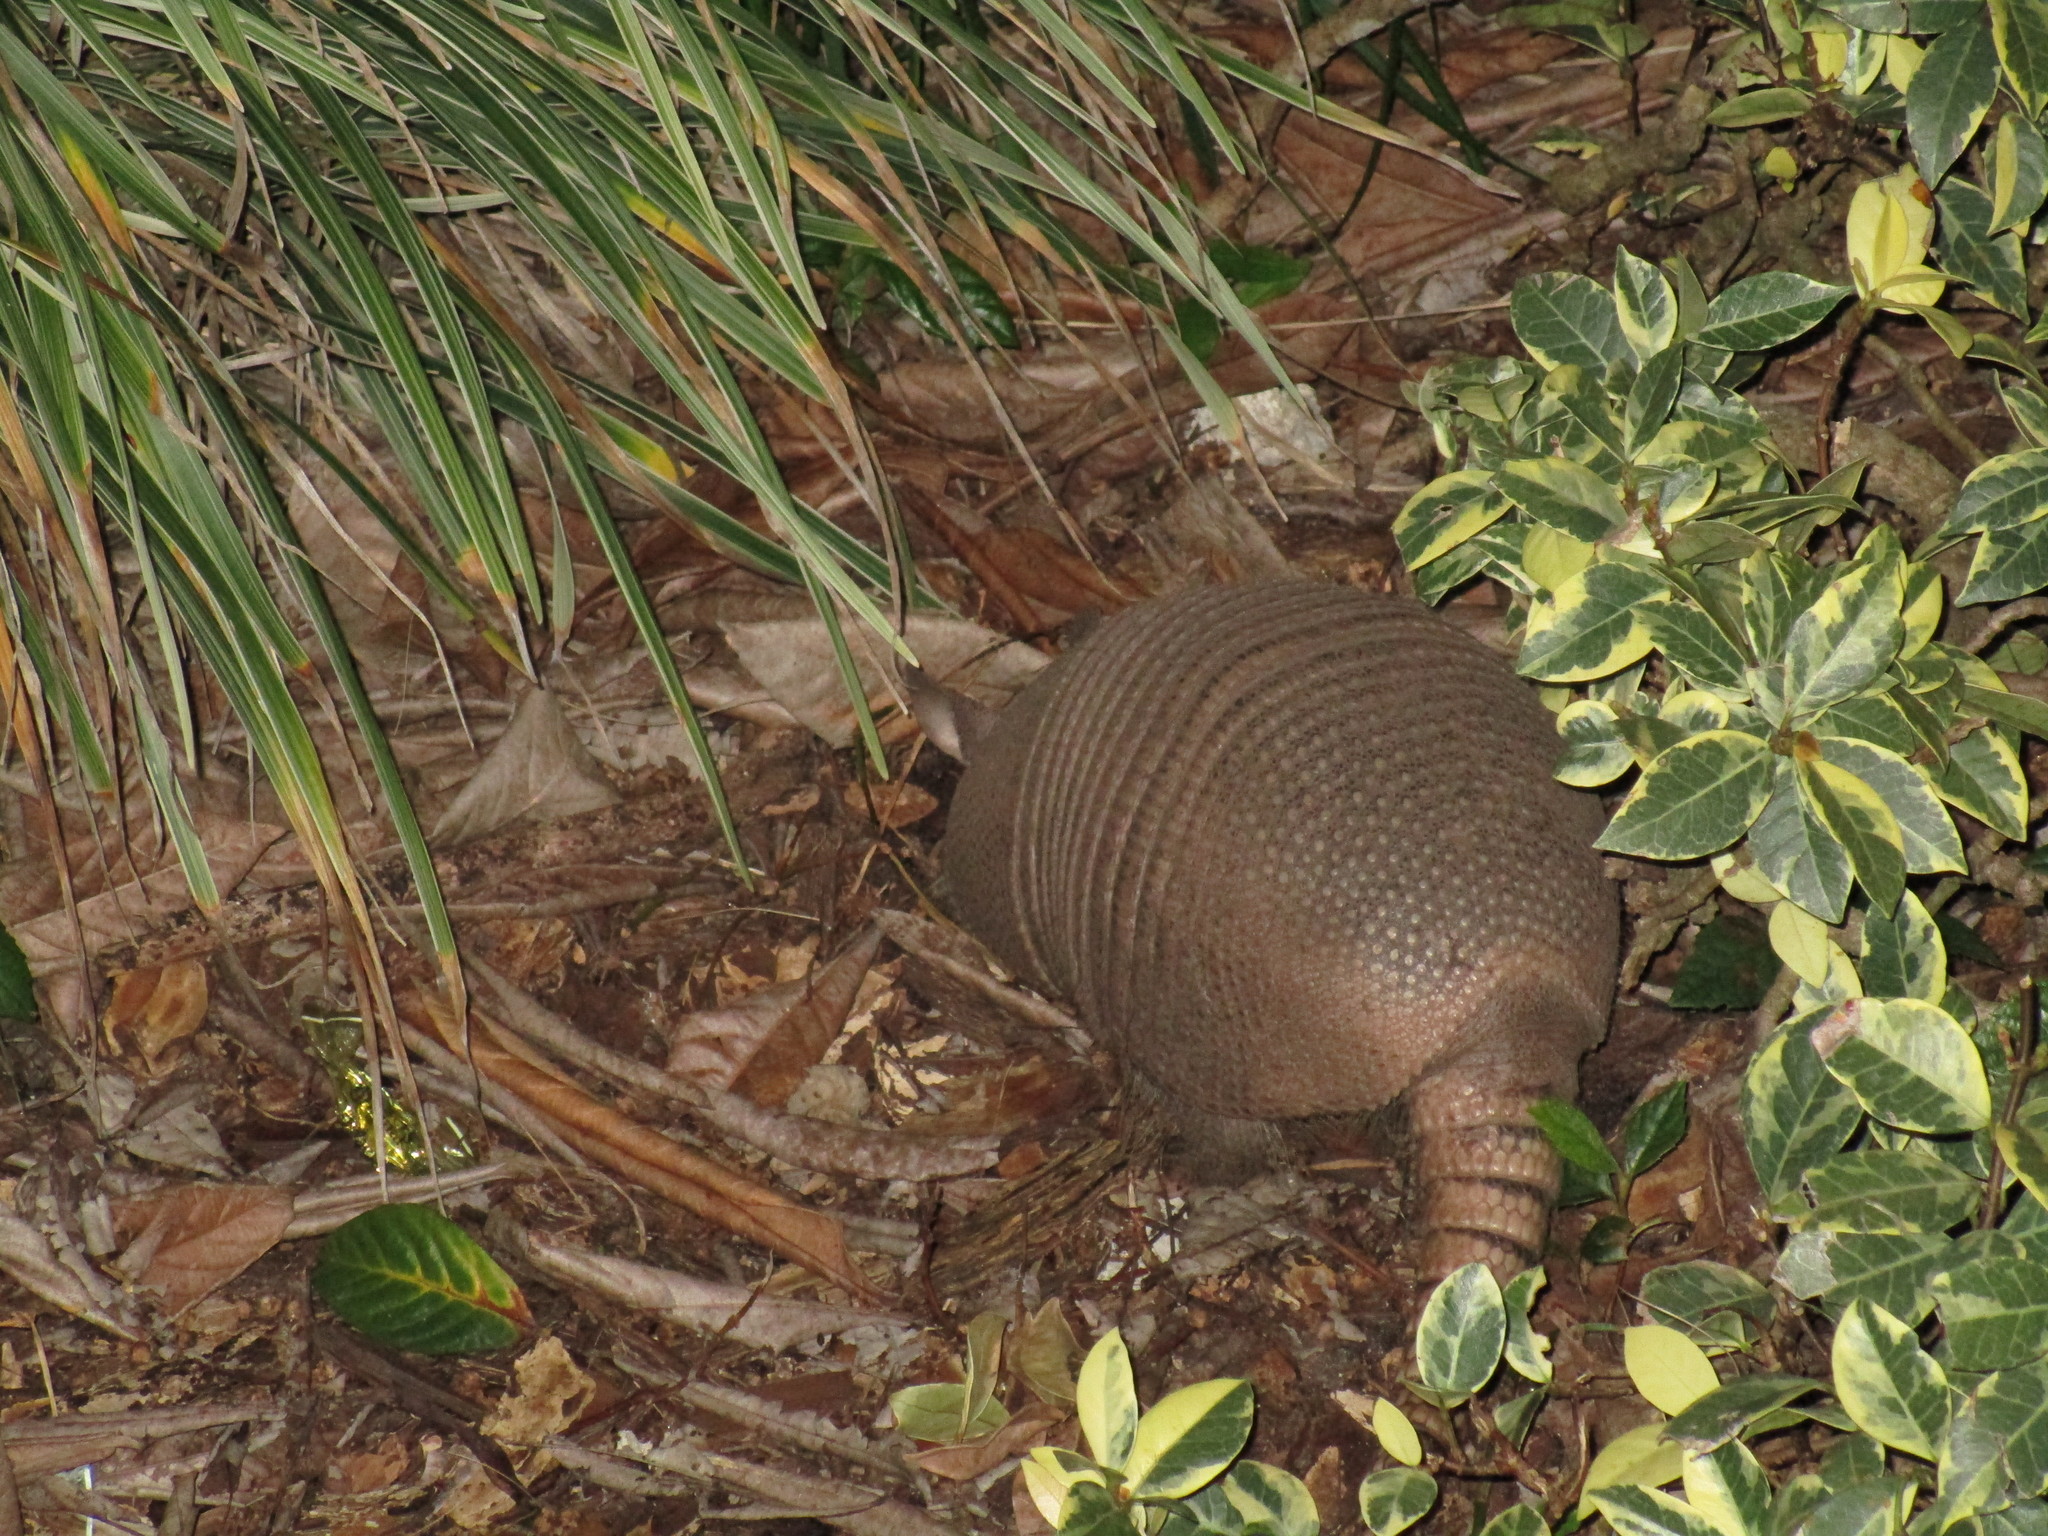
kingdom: Animalia
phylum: Chordata
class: Mammalia
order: Cingulata
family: Dasypodidae
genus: Dasypus
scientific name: Dasypus novemcinctus
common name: Nine-banded armadillo
